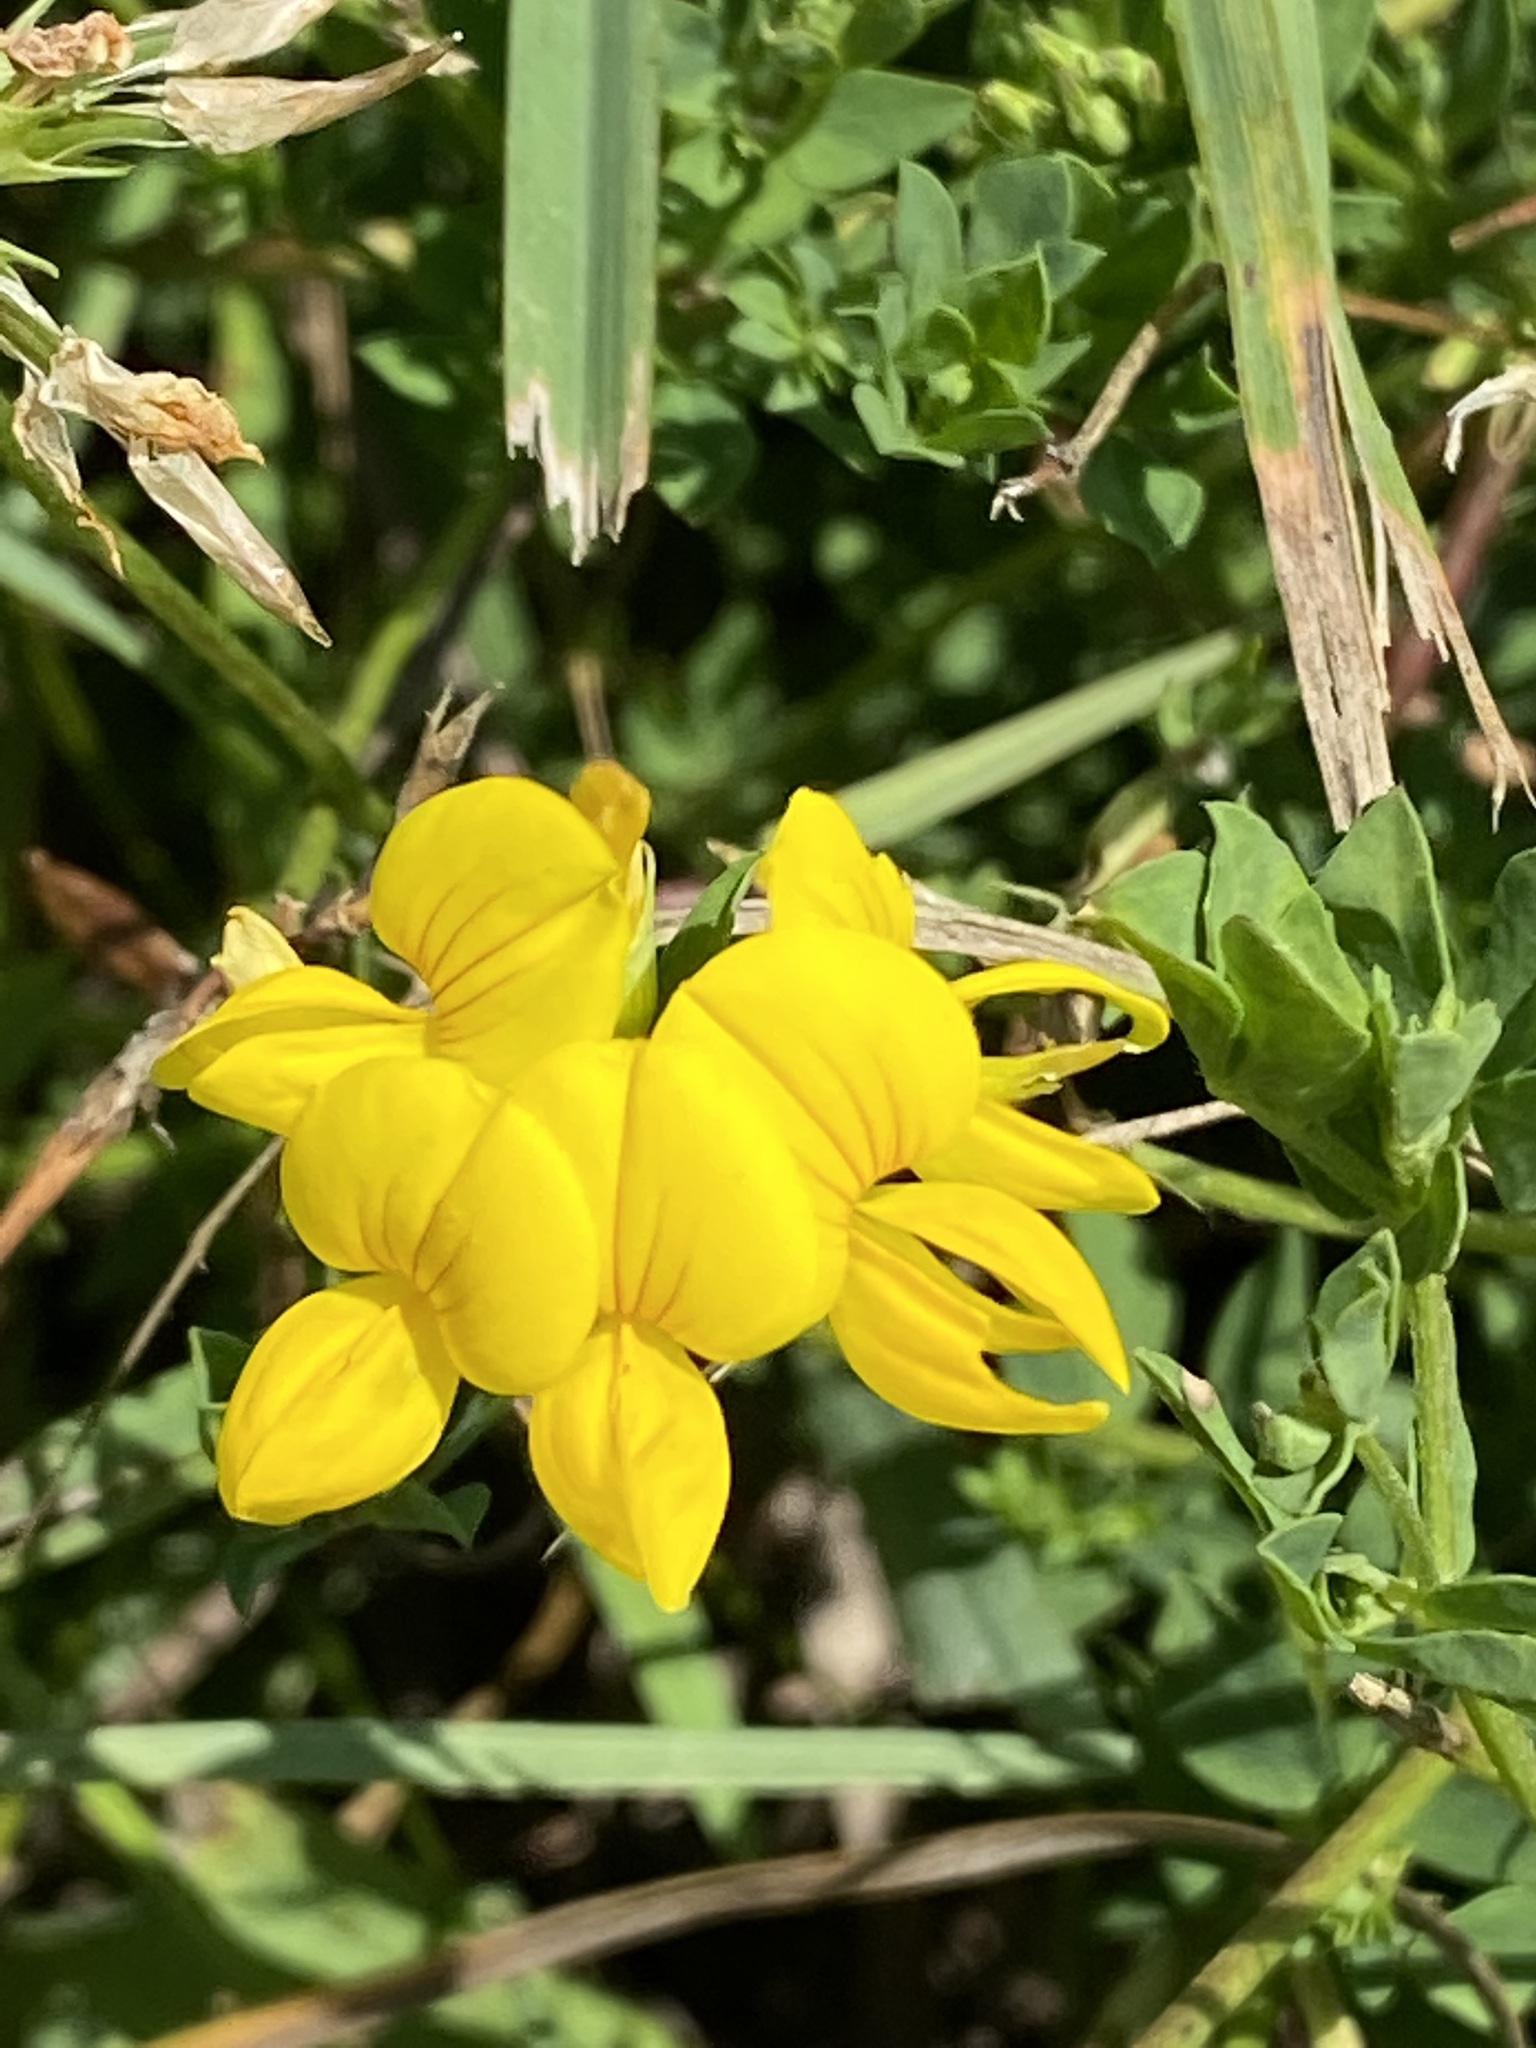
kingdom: Plantae
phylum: Tracheophyta
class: Magnoliopsida
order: Fabales
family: Fabaceae
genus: Lotus
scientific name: Lotus corniculatus
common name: Common bird's-foot-trefoil
